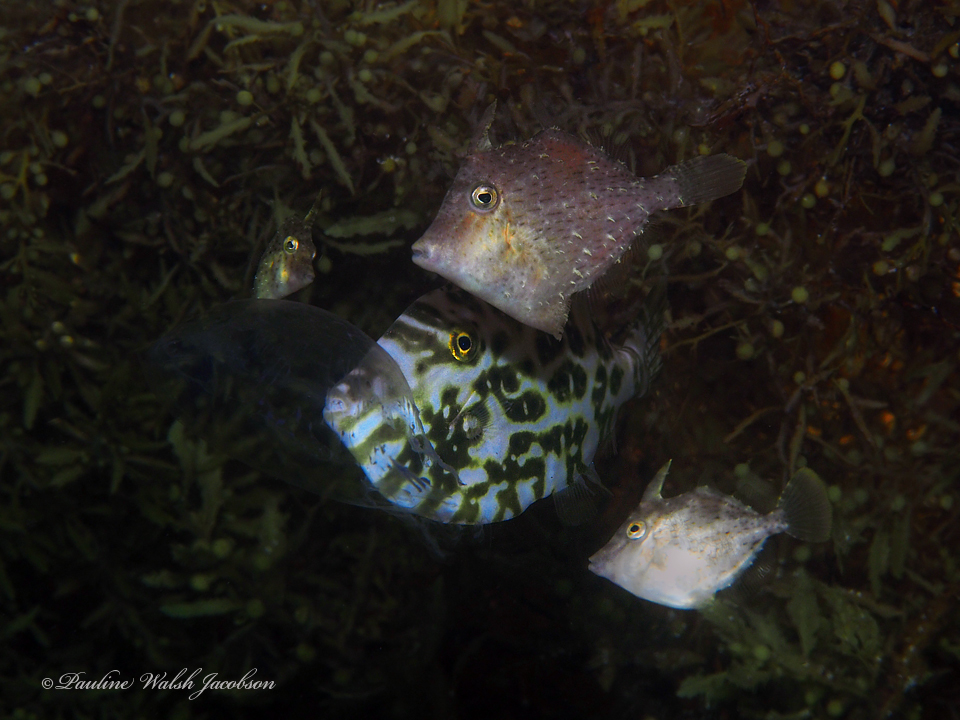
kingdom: Animalia
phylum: Chordata
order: Tetraodontiformes
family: Monacanthidae
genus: Aluterus
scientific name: Aluterus monoceros
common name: Batfish
